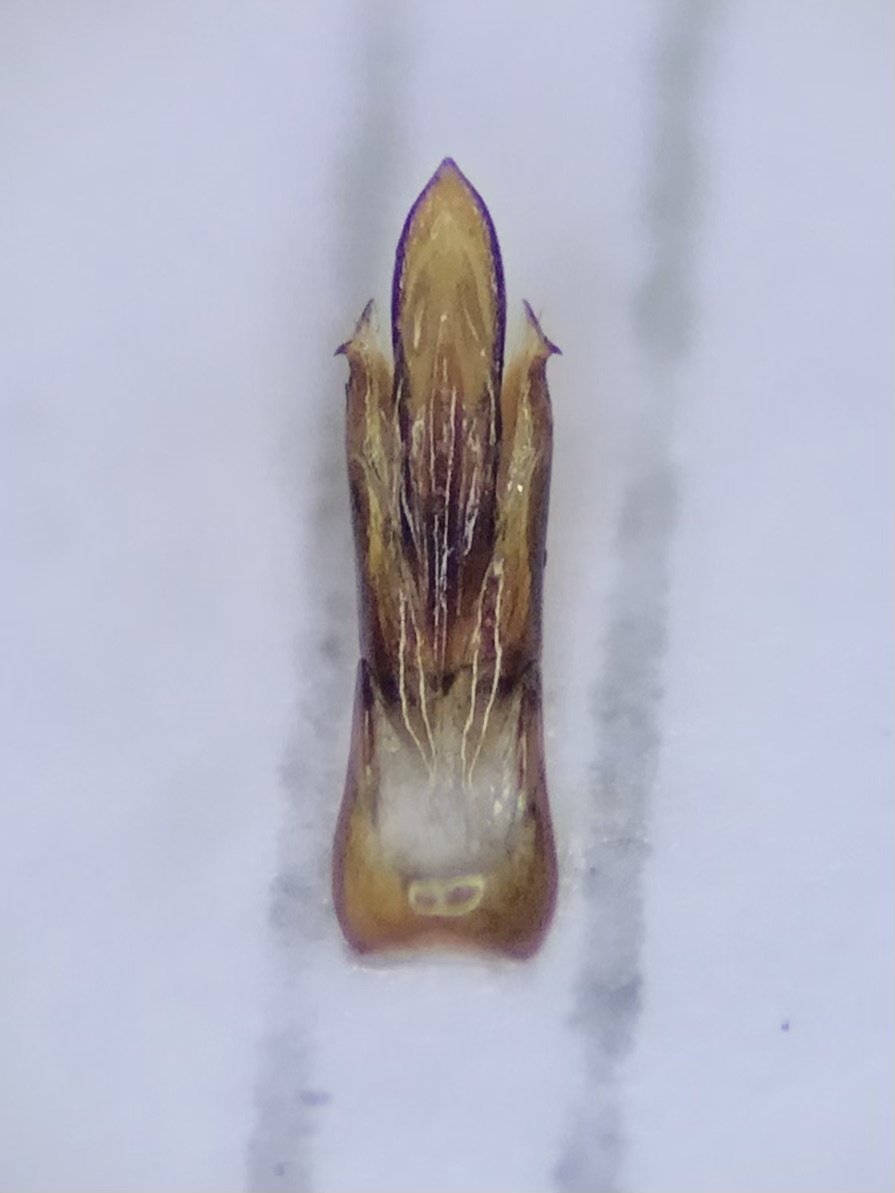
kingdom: Animalia
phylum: Arthropoda
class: Insecta
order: Coleoptera
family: Elateridae
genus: Agriotes
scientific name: Agriotes obscurus
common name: Dusky wireworm
